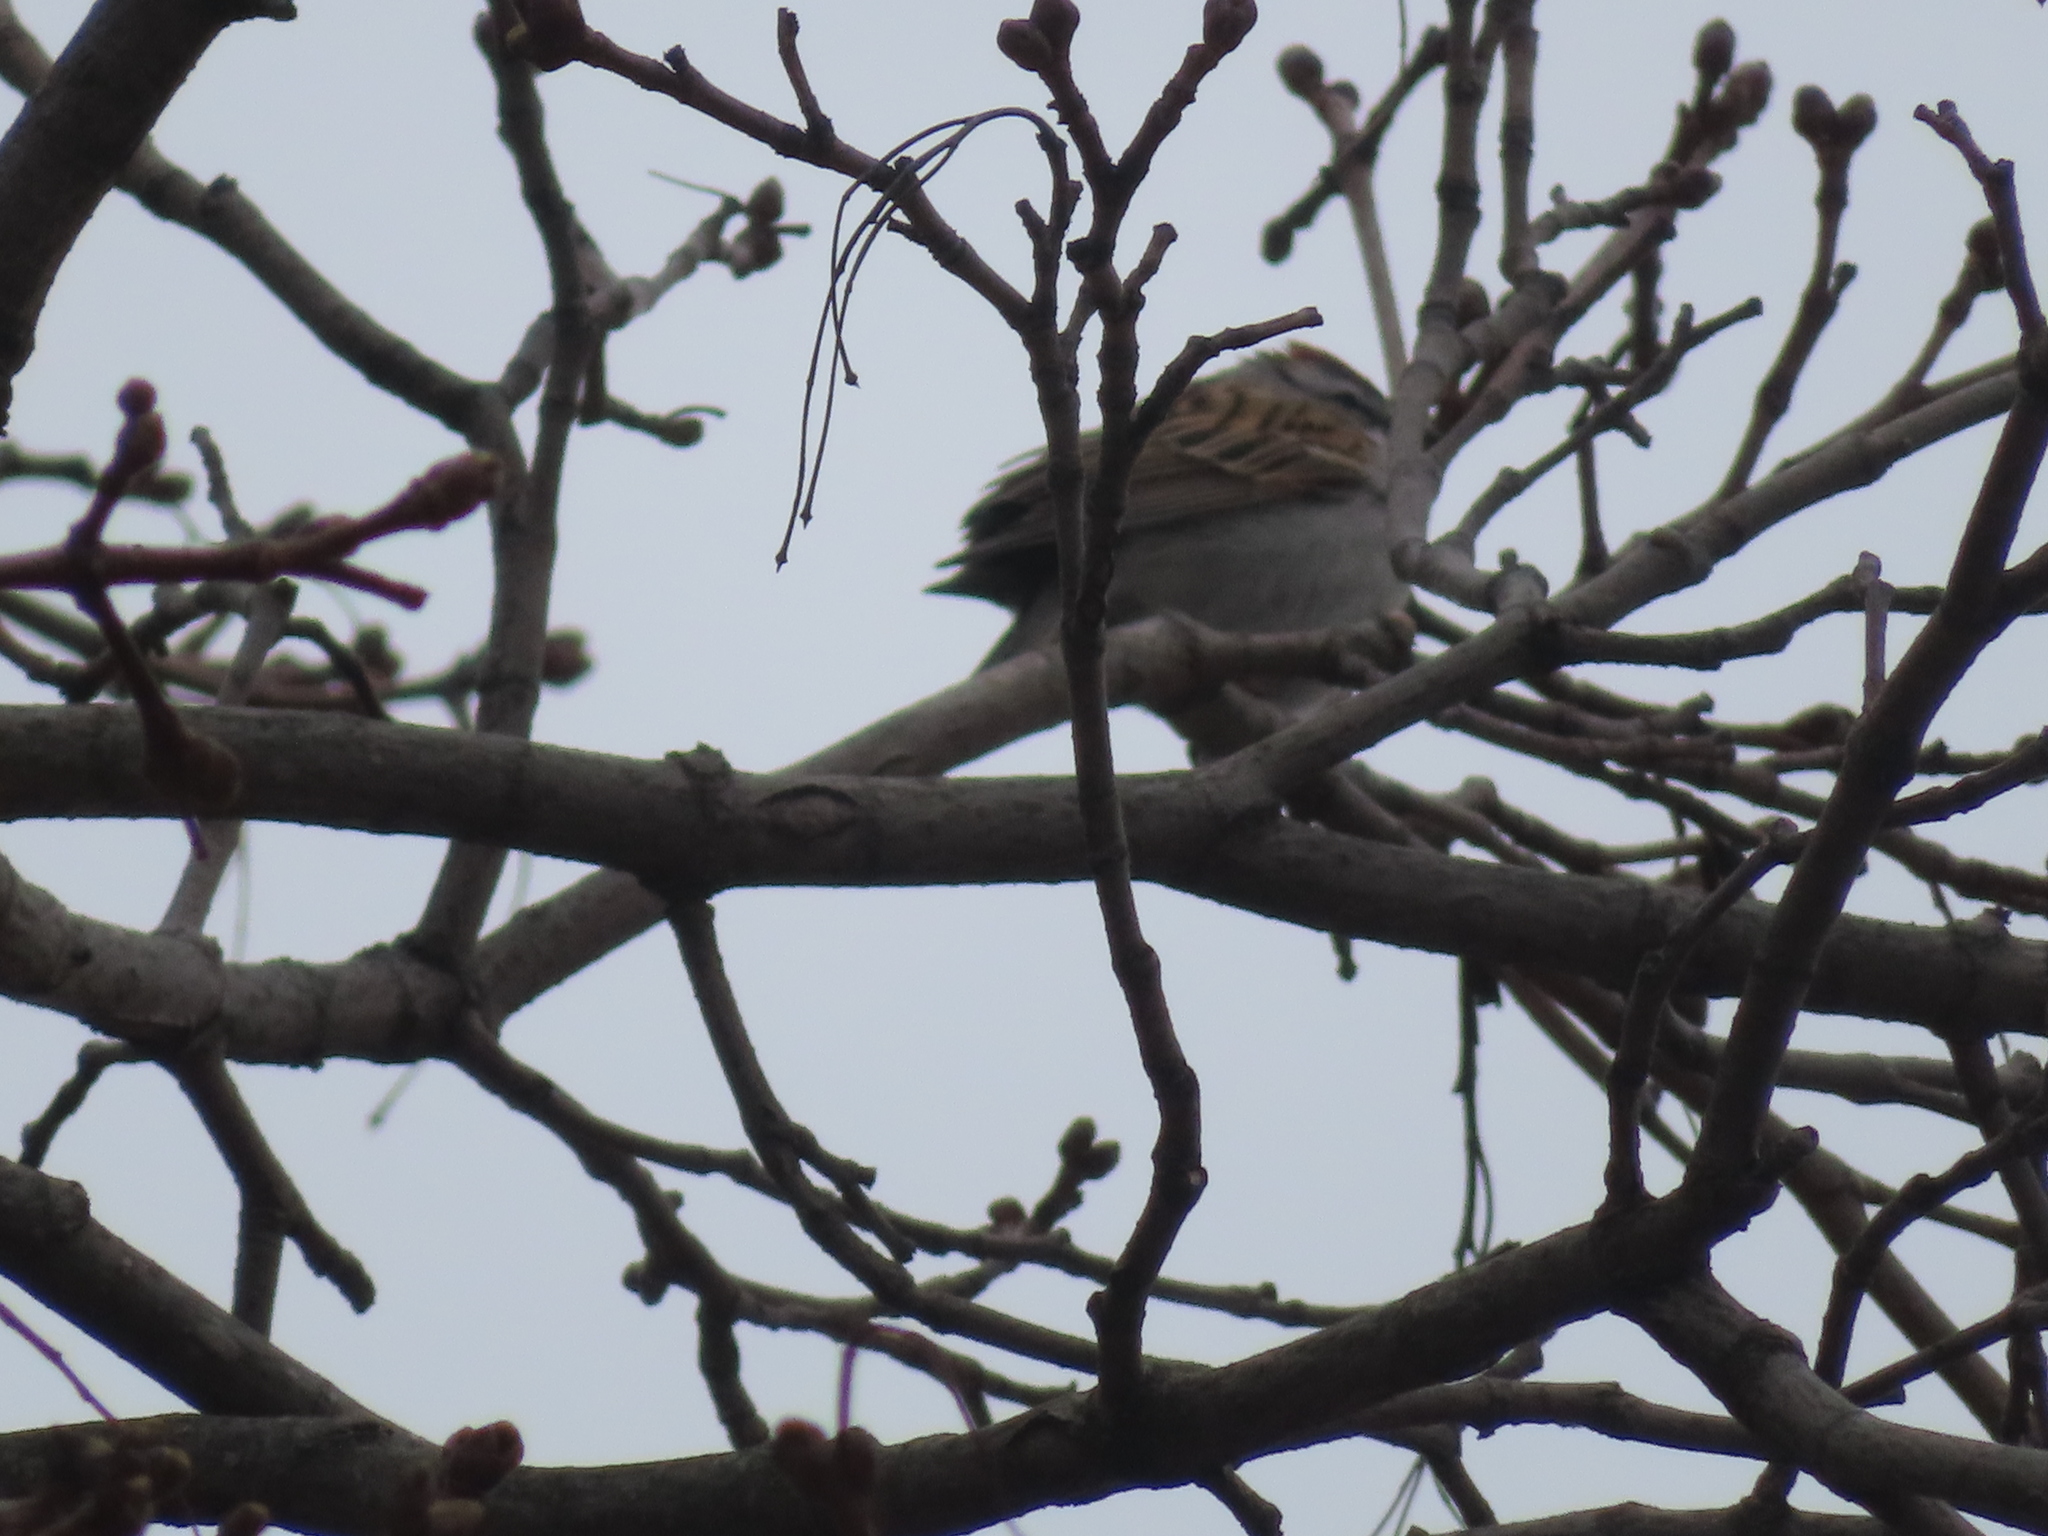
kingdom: Animalia
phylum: Chordata
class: Aves
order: Passeriformes
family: Passerellidae
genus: Spizella
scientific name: Spizella passerina
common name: Chipping sparrow
